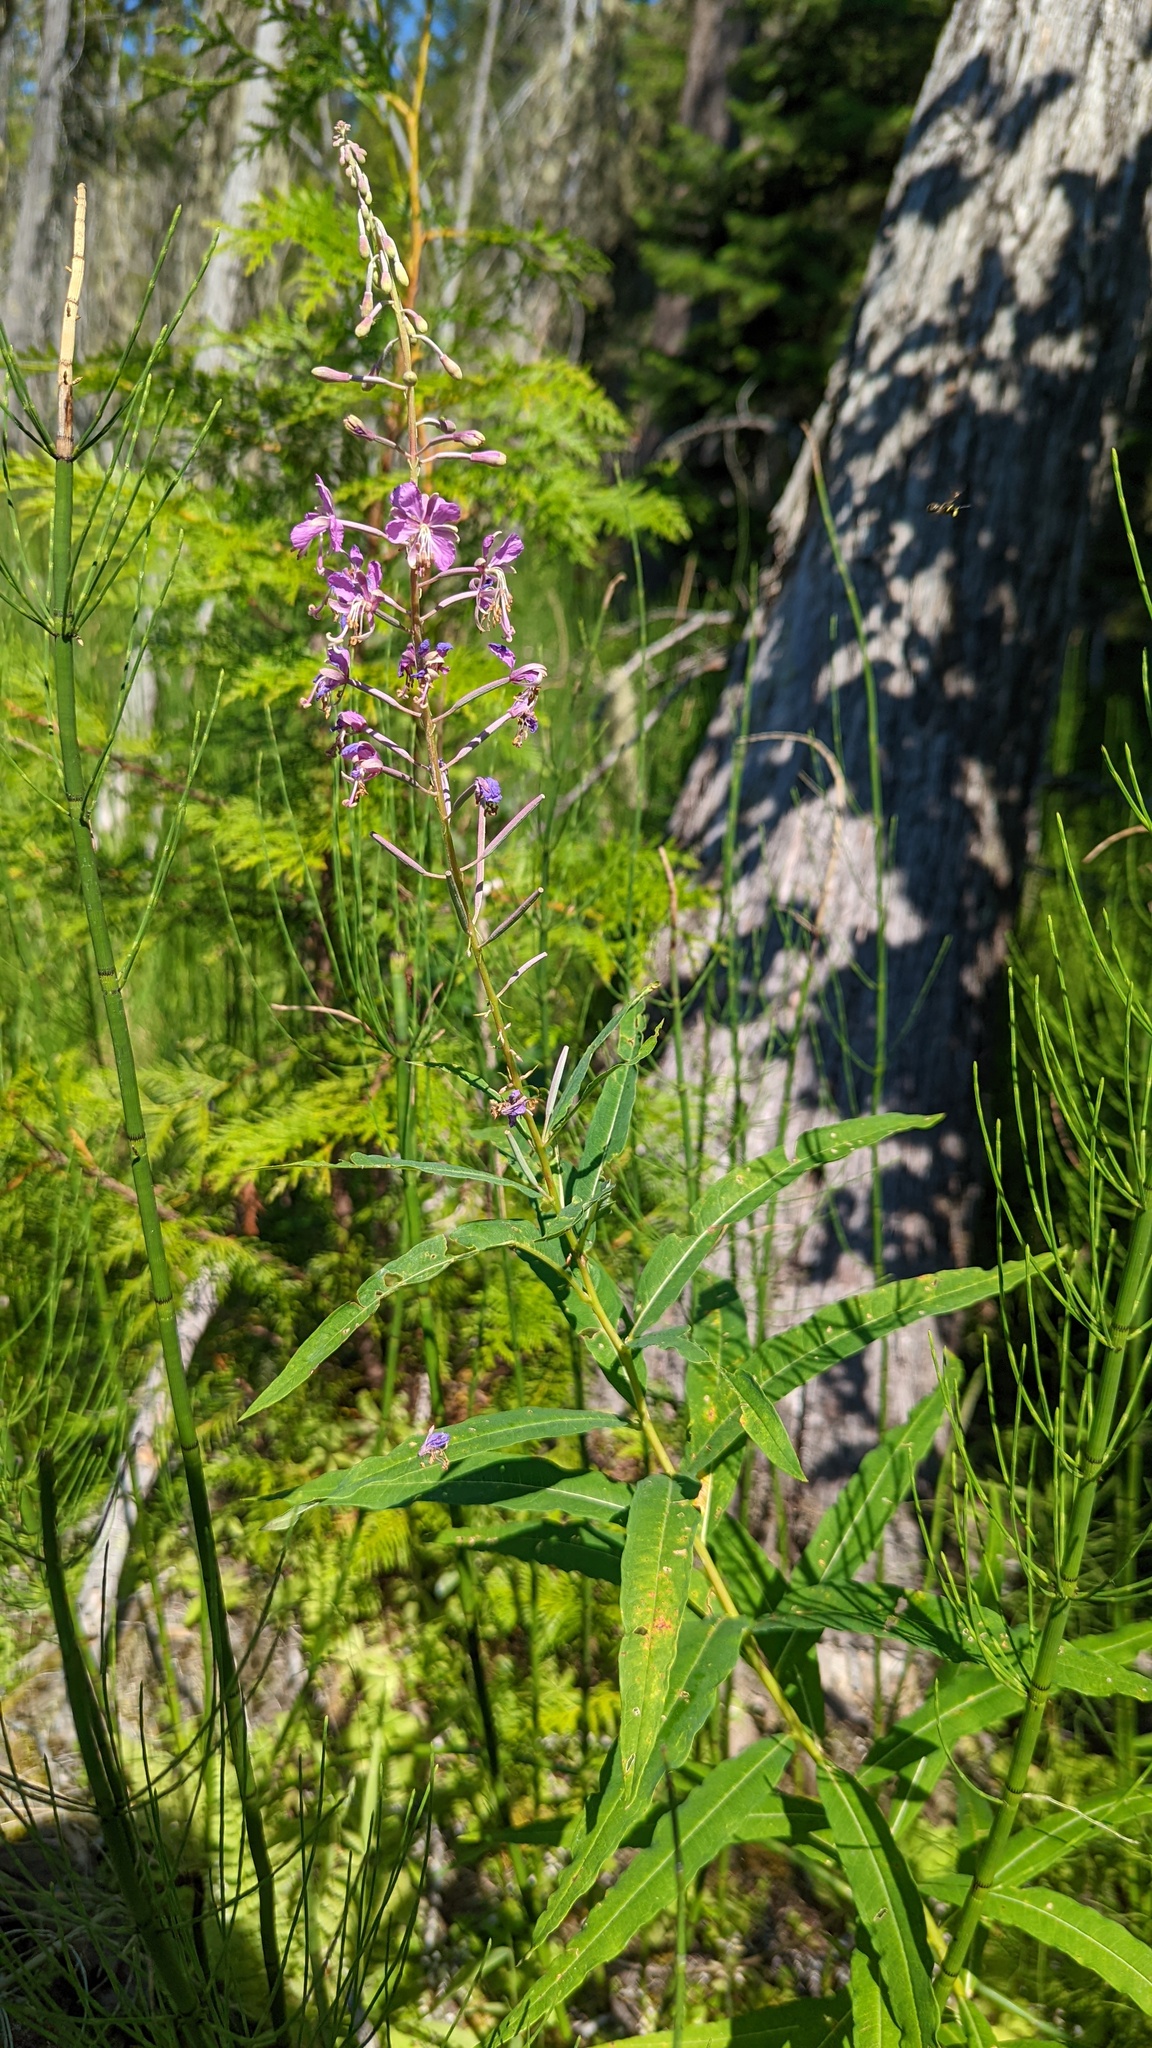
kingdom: Plantae
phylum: Tracheophyta
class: Magnoliopsida
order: Myrtales
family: Onagraceae
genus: Chamaenerion
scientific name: Chamaenerion angustifolium
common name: Fireweed
